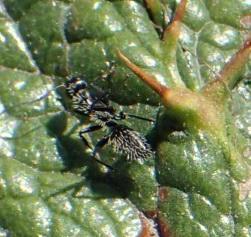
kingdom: Animalia
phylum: Arthropoda
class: Insecta
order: Hymenoptera
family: Formicidae
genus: Camponotus
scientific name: Camponotus niveosetosus
